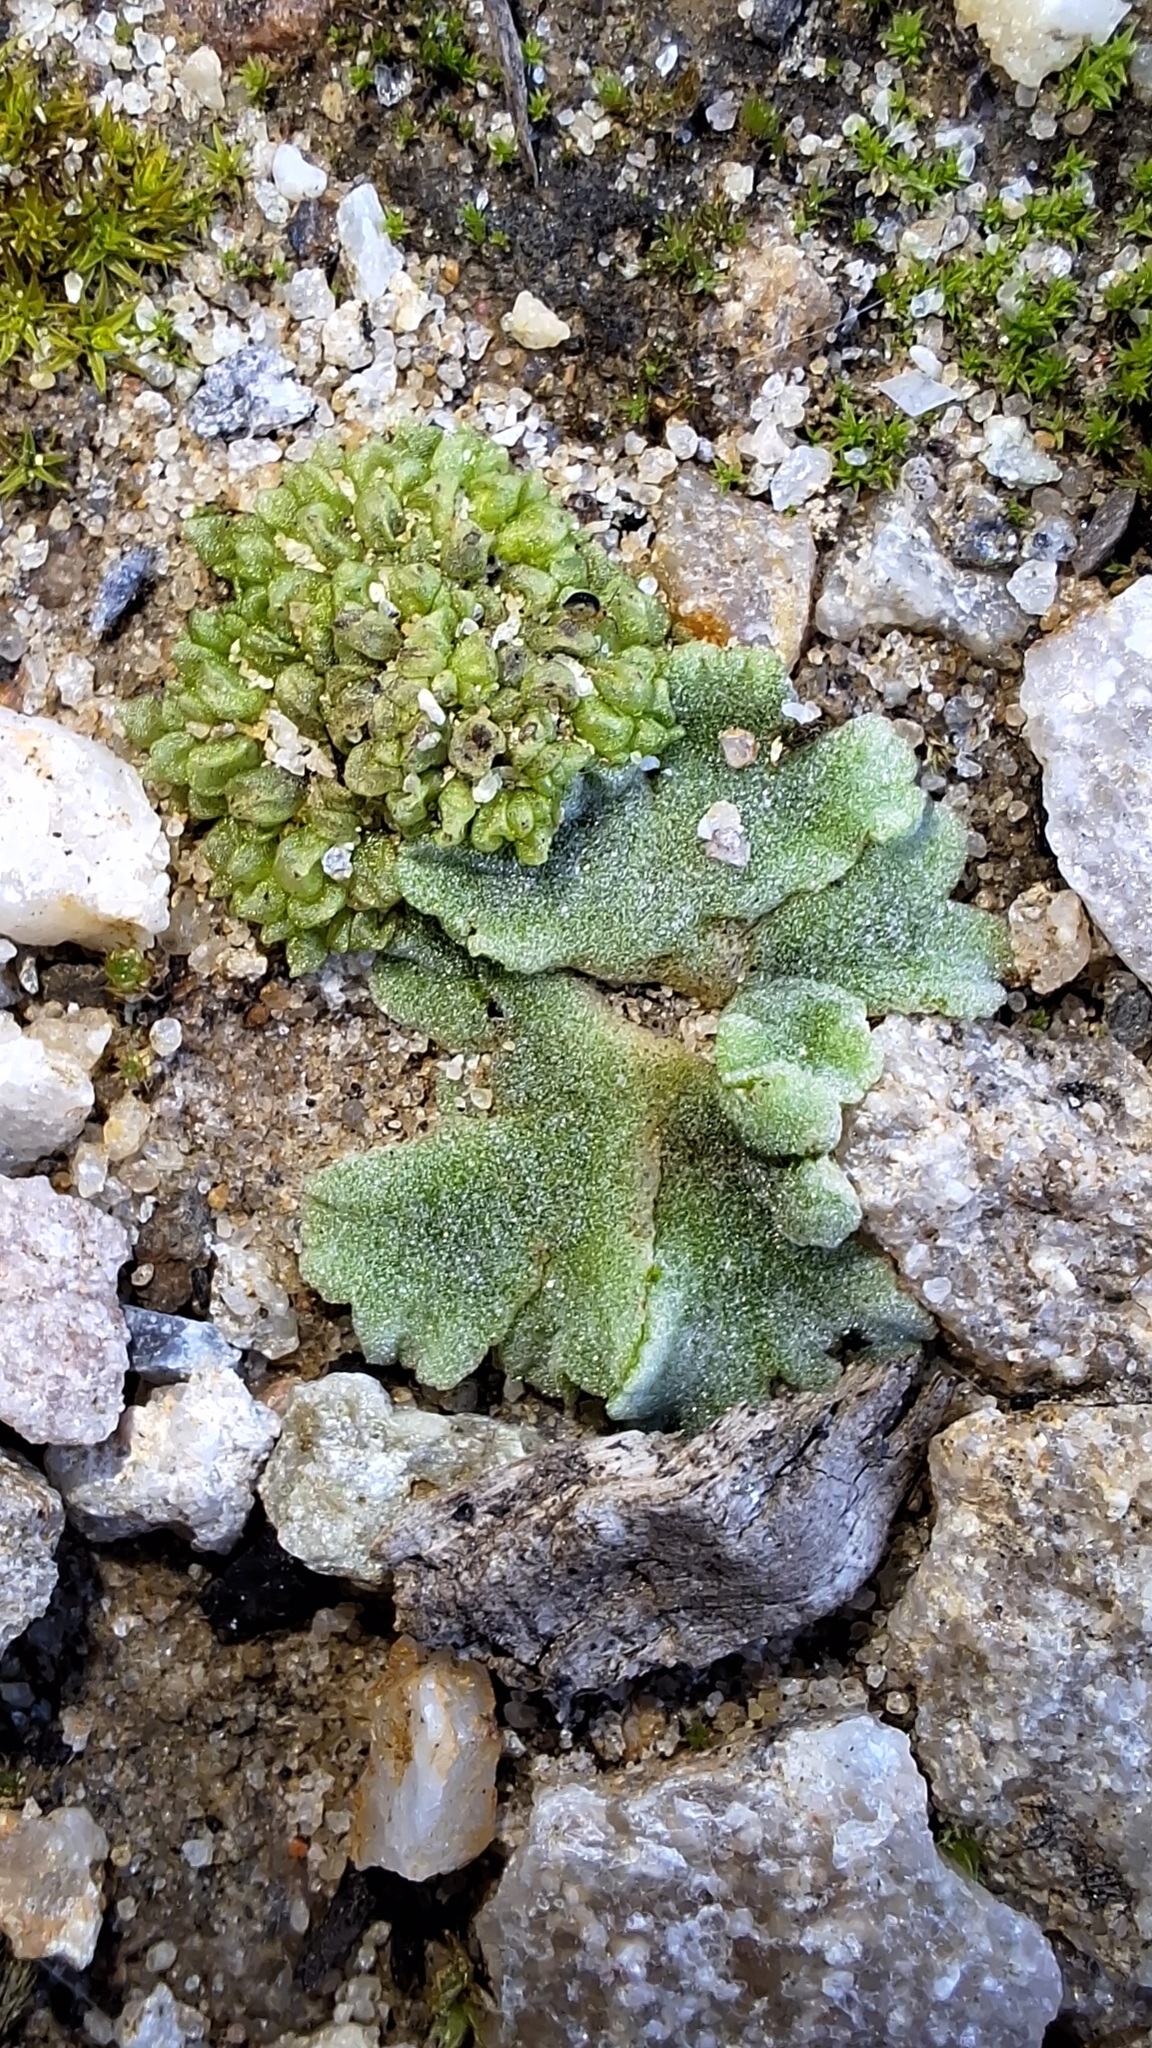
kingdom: Plantae
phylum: Marchantiophyta
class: Marchantiopsida
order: Marchantiales
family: Ricciaceae
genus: Riccia
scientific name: Riccia crystallina
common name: Blue crystalwort
